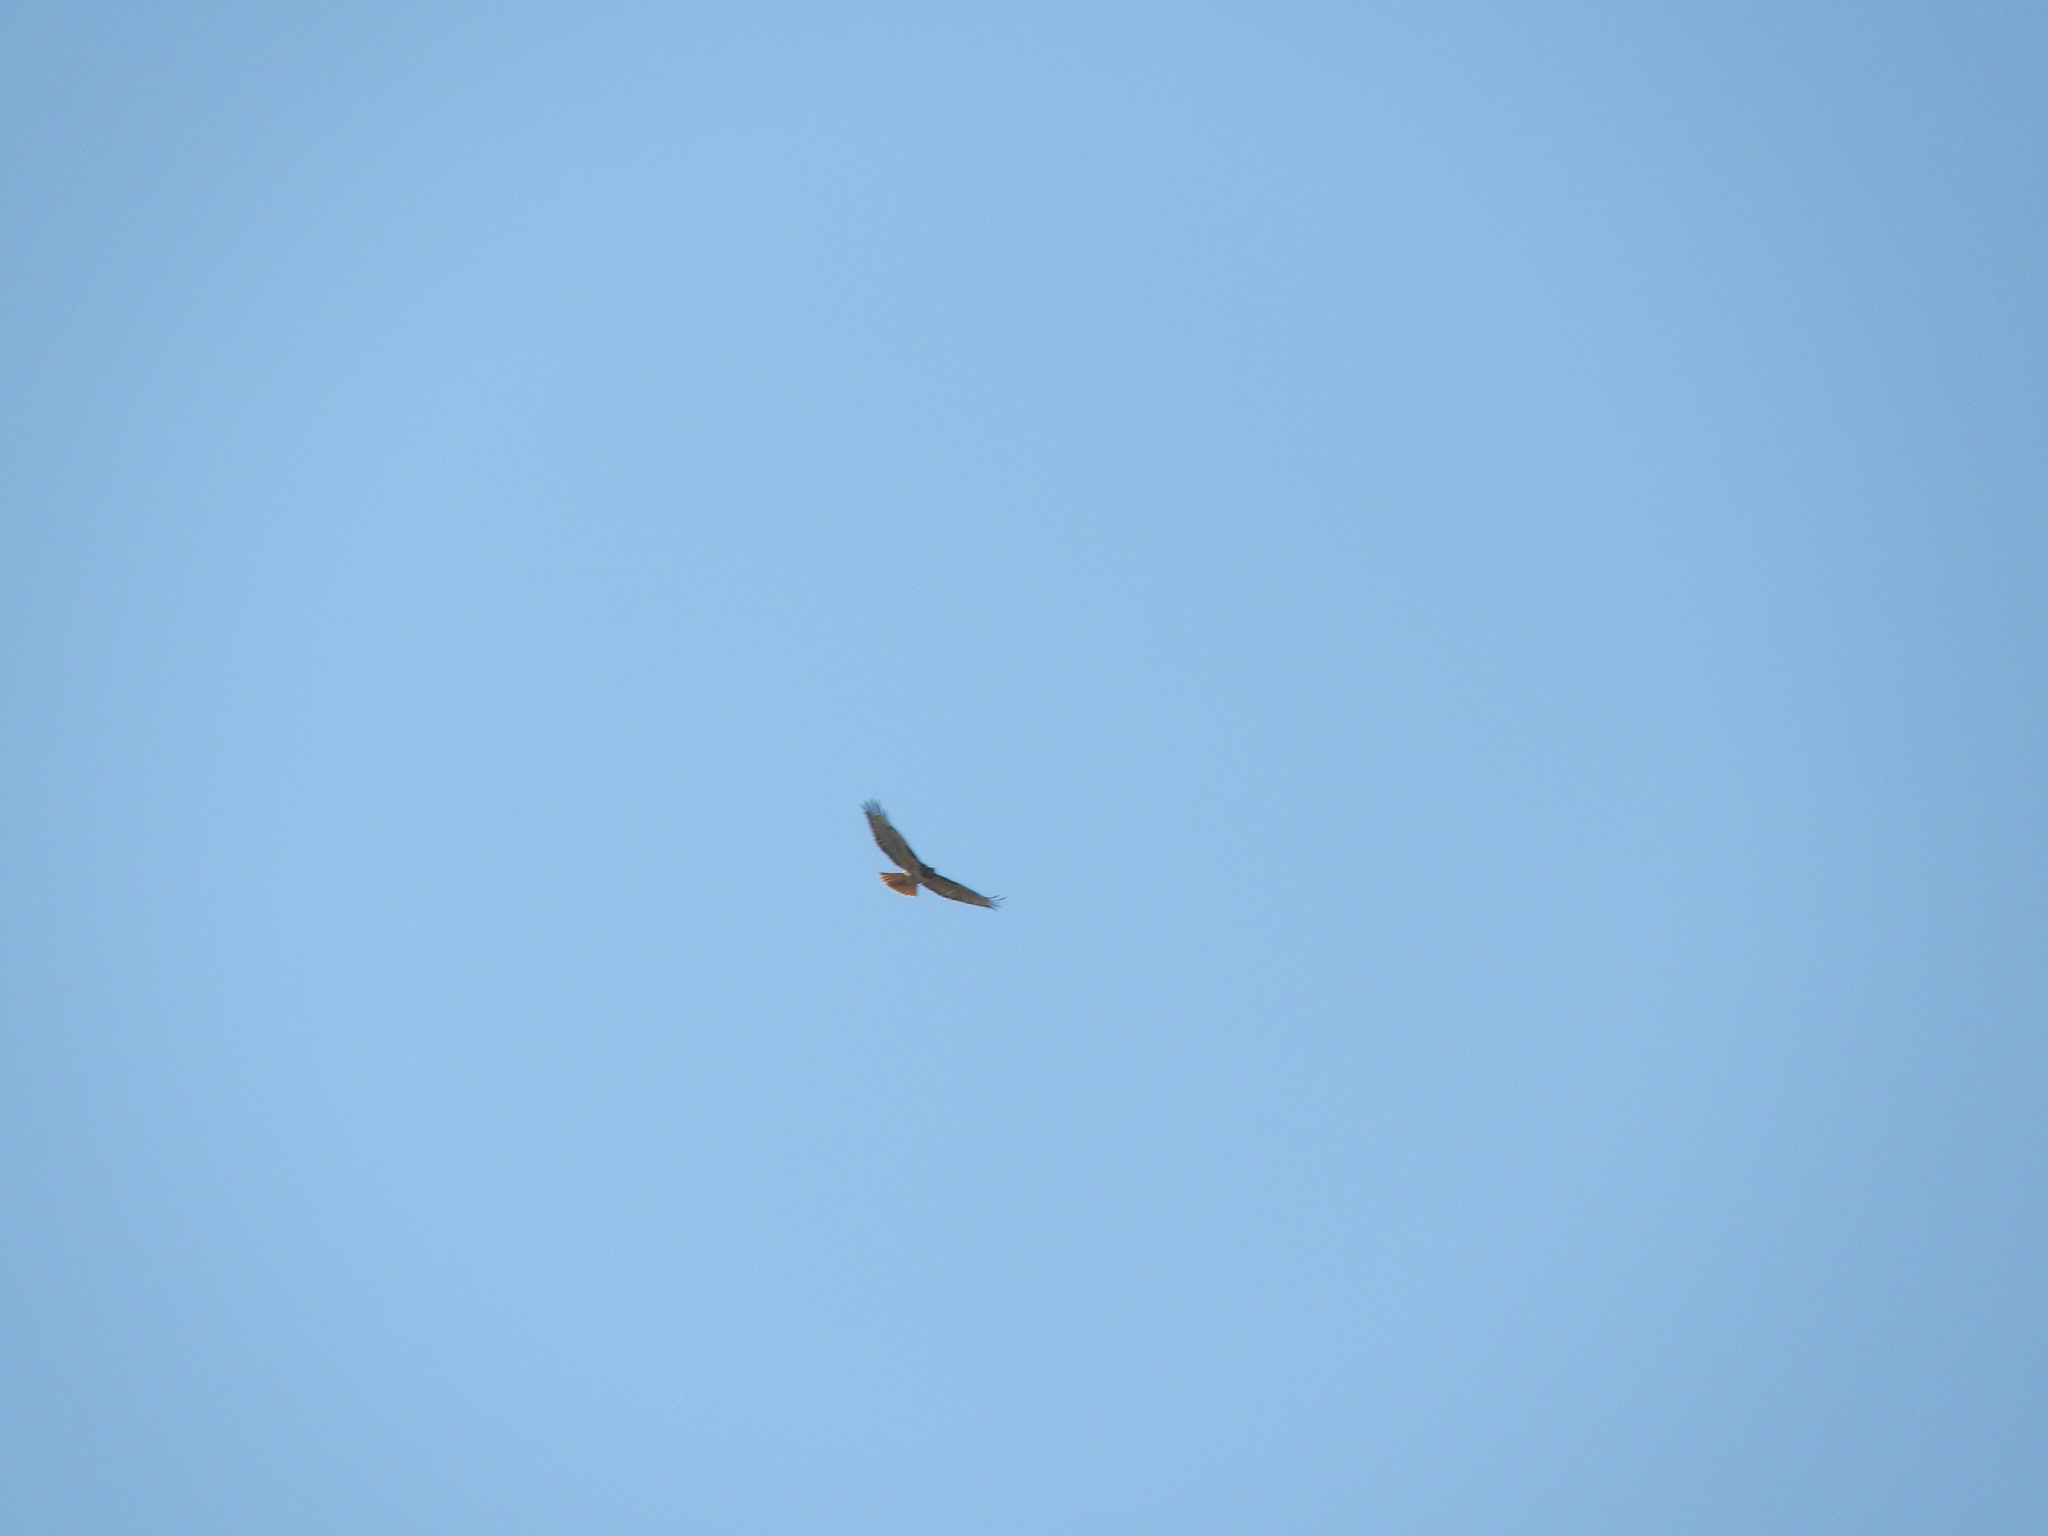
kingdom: Animalia
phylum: Chordata
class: Aves
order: Accipitriformes
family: Accipitridae
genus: Buteo
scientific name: Buteo jamaicensis
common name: Red-tailed hawk
